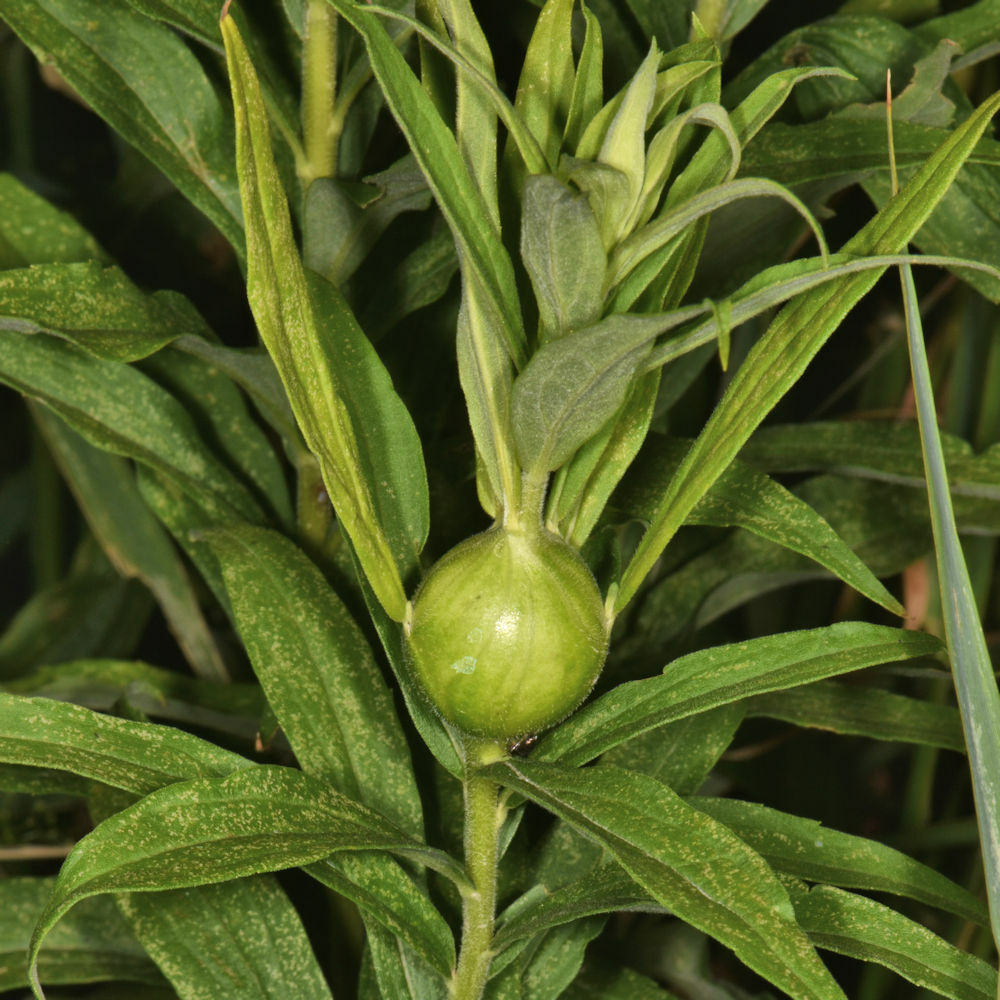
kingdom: Animalia
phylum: Arthropoda
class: Insecta
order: Diptera
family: Tephritidae
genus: Eurosta
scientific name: Eurosta solidaginis
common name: Goldenrod gall fly
